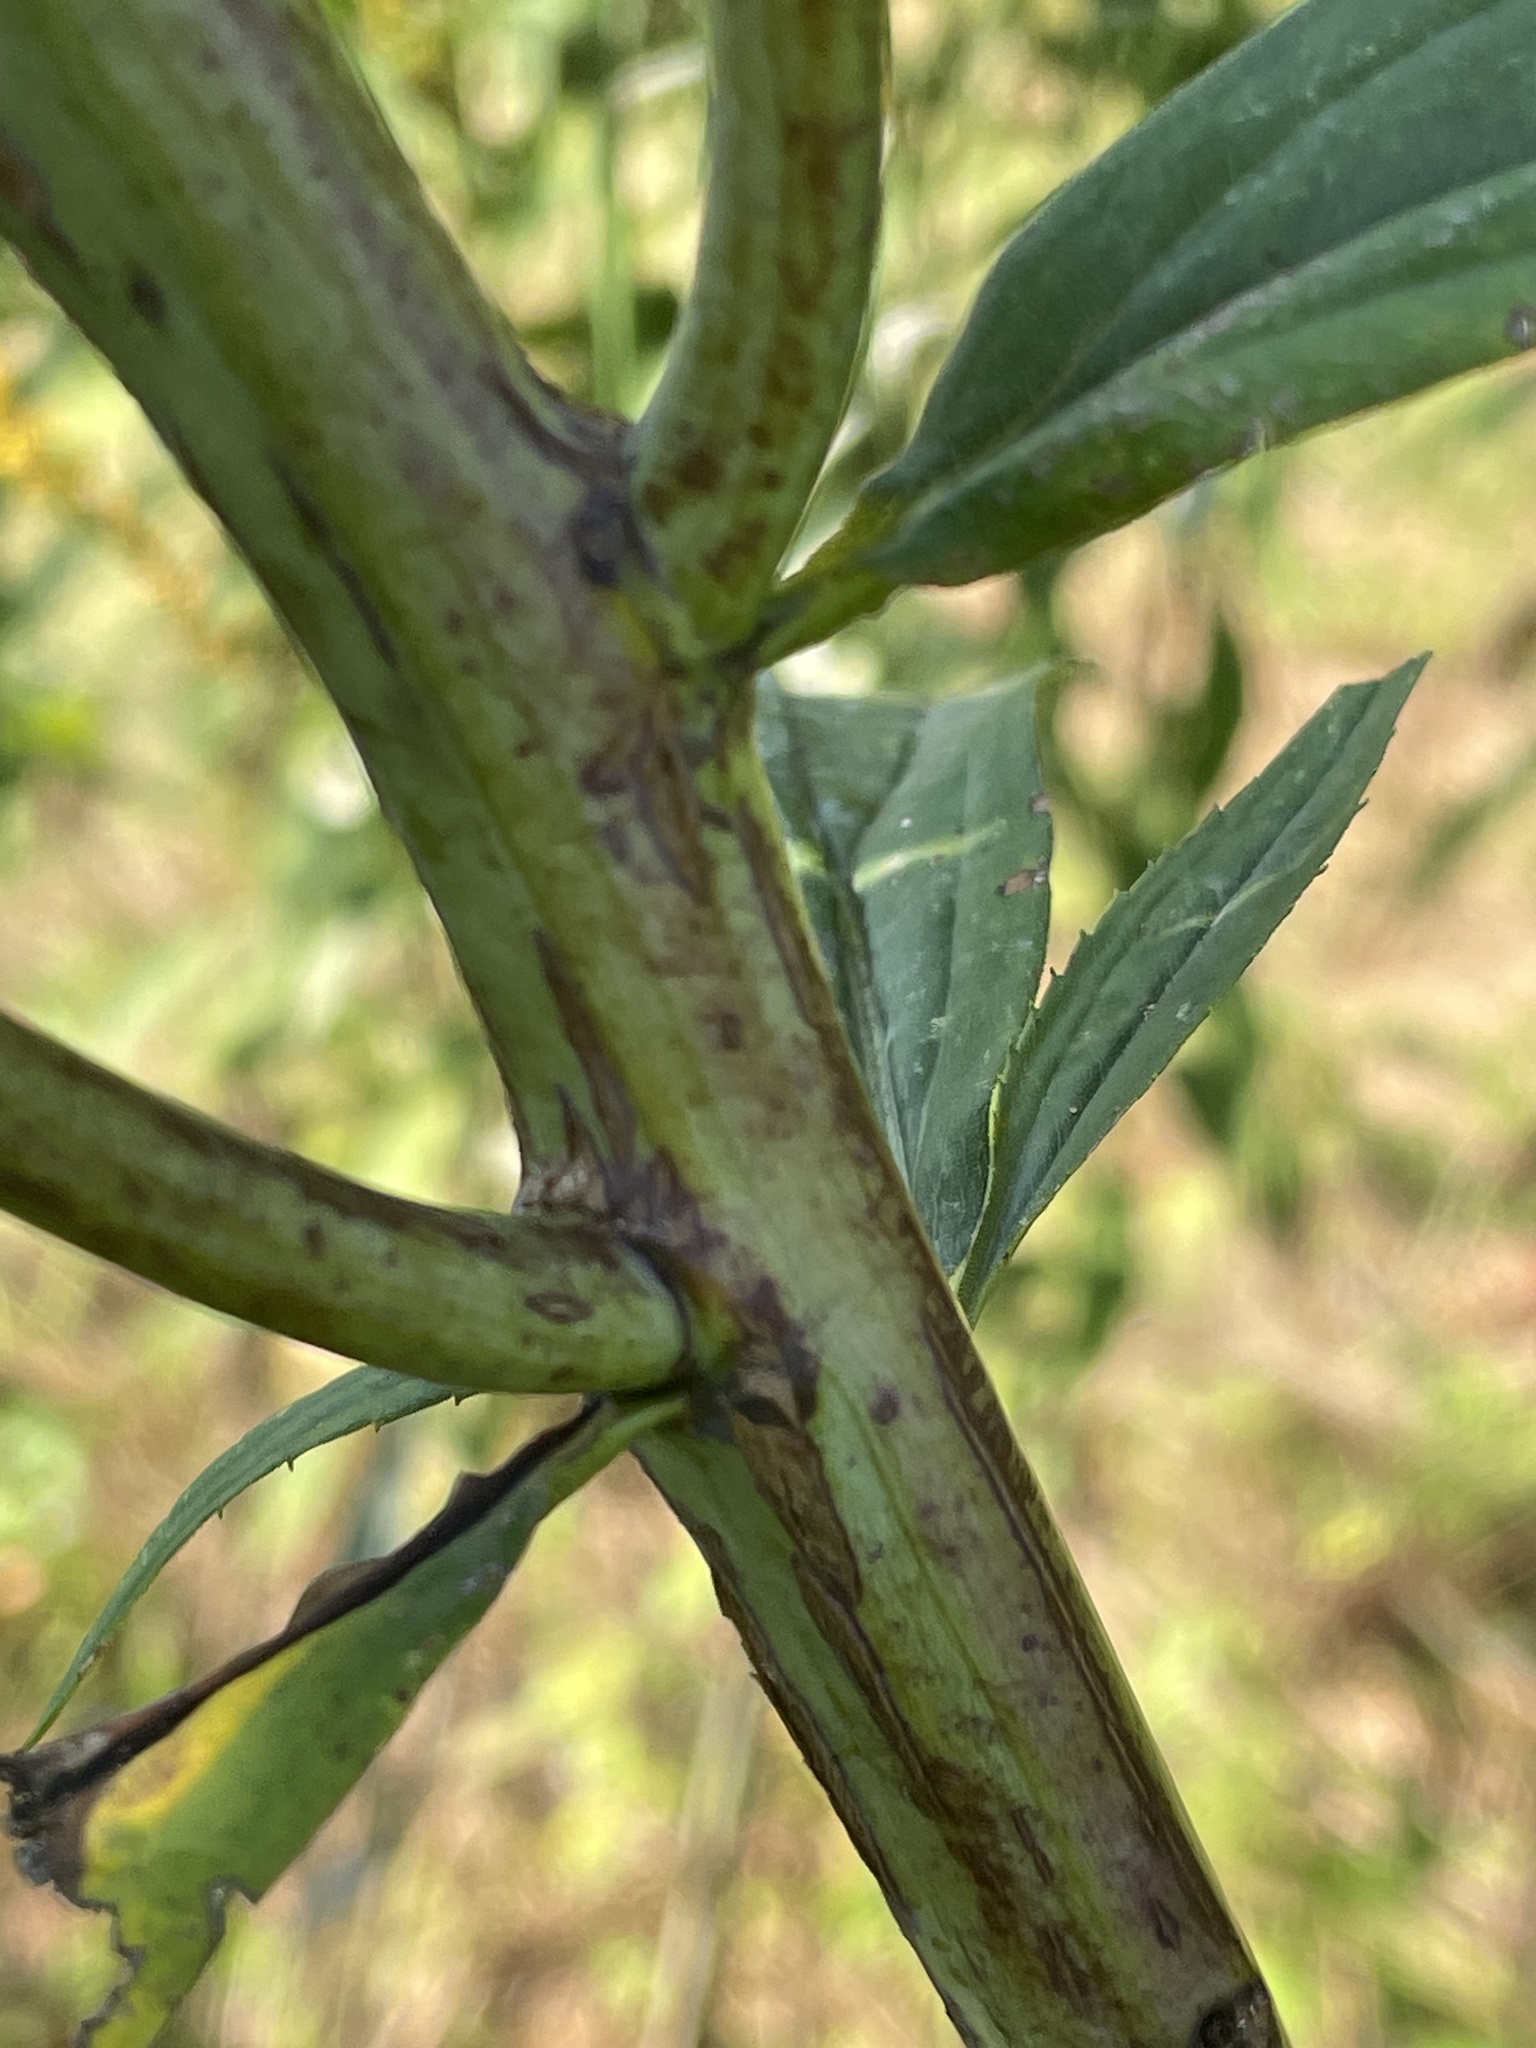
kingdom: Plantae
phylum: Tracheophyta
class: Magnoliopsida
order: Asterales
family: Asteraceae
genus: Solidago
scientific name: Solidago gigantea
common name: Giant goldenrod
